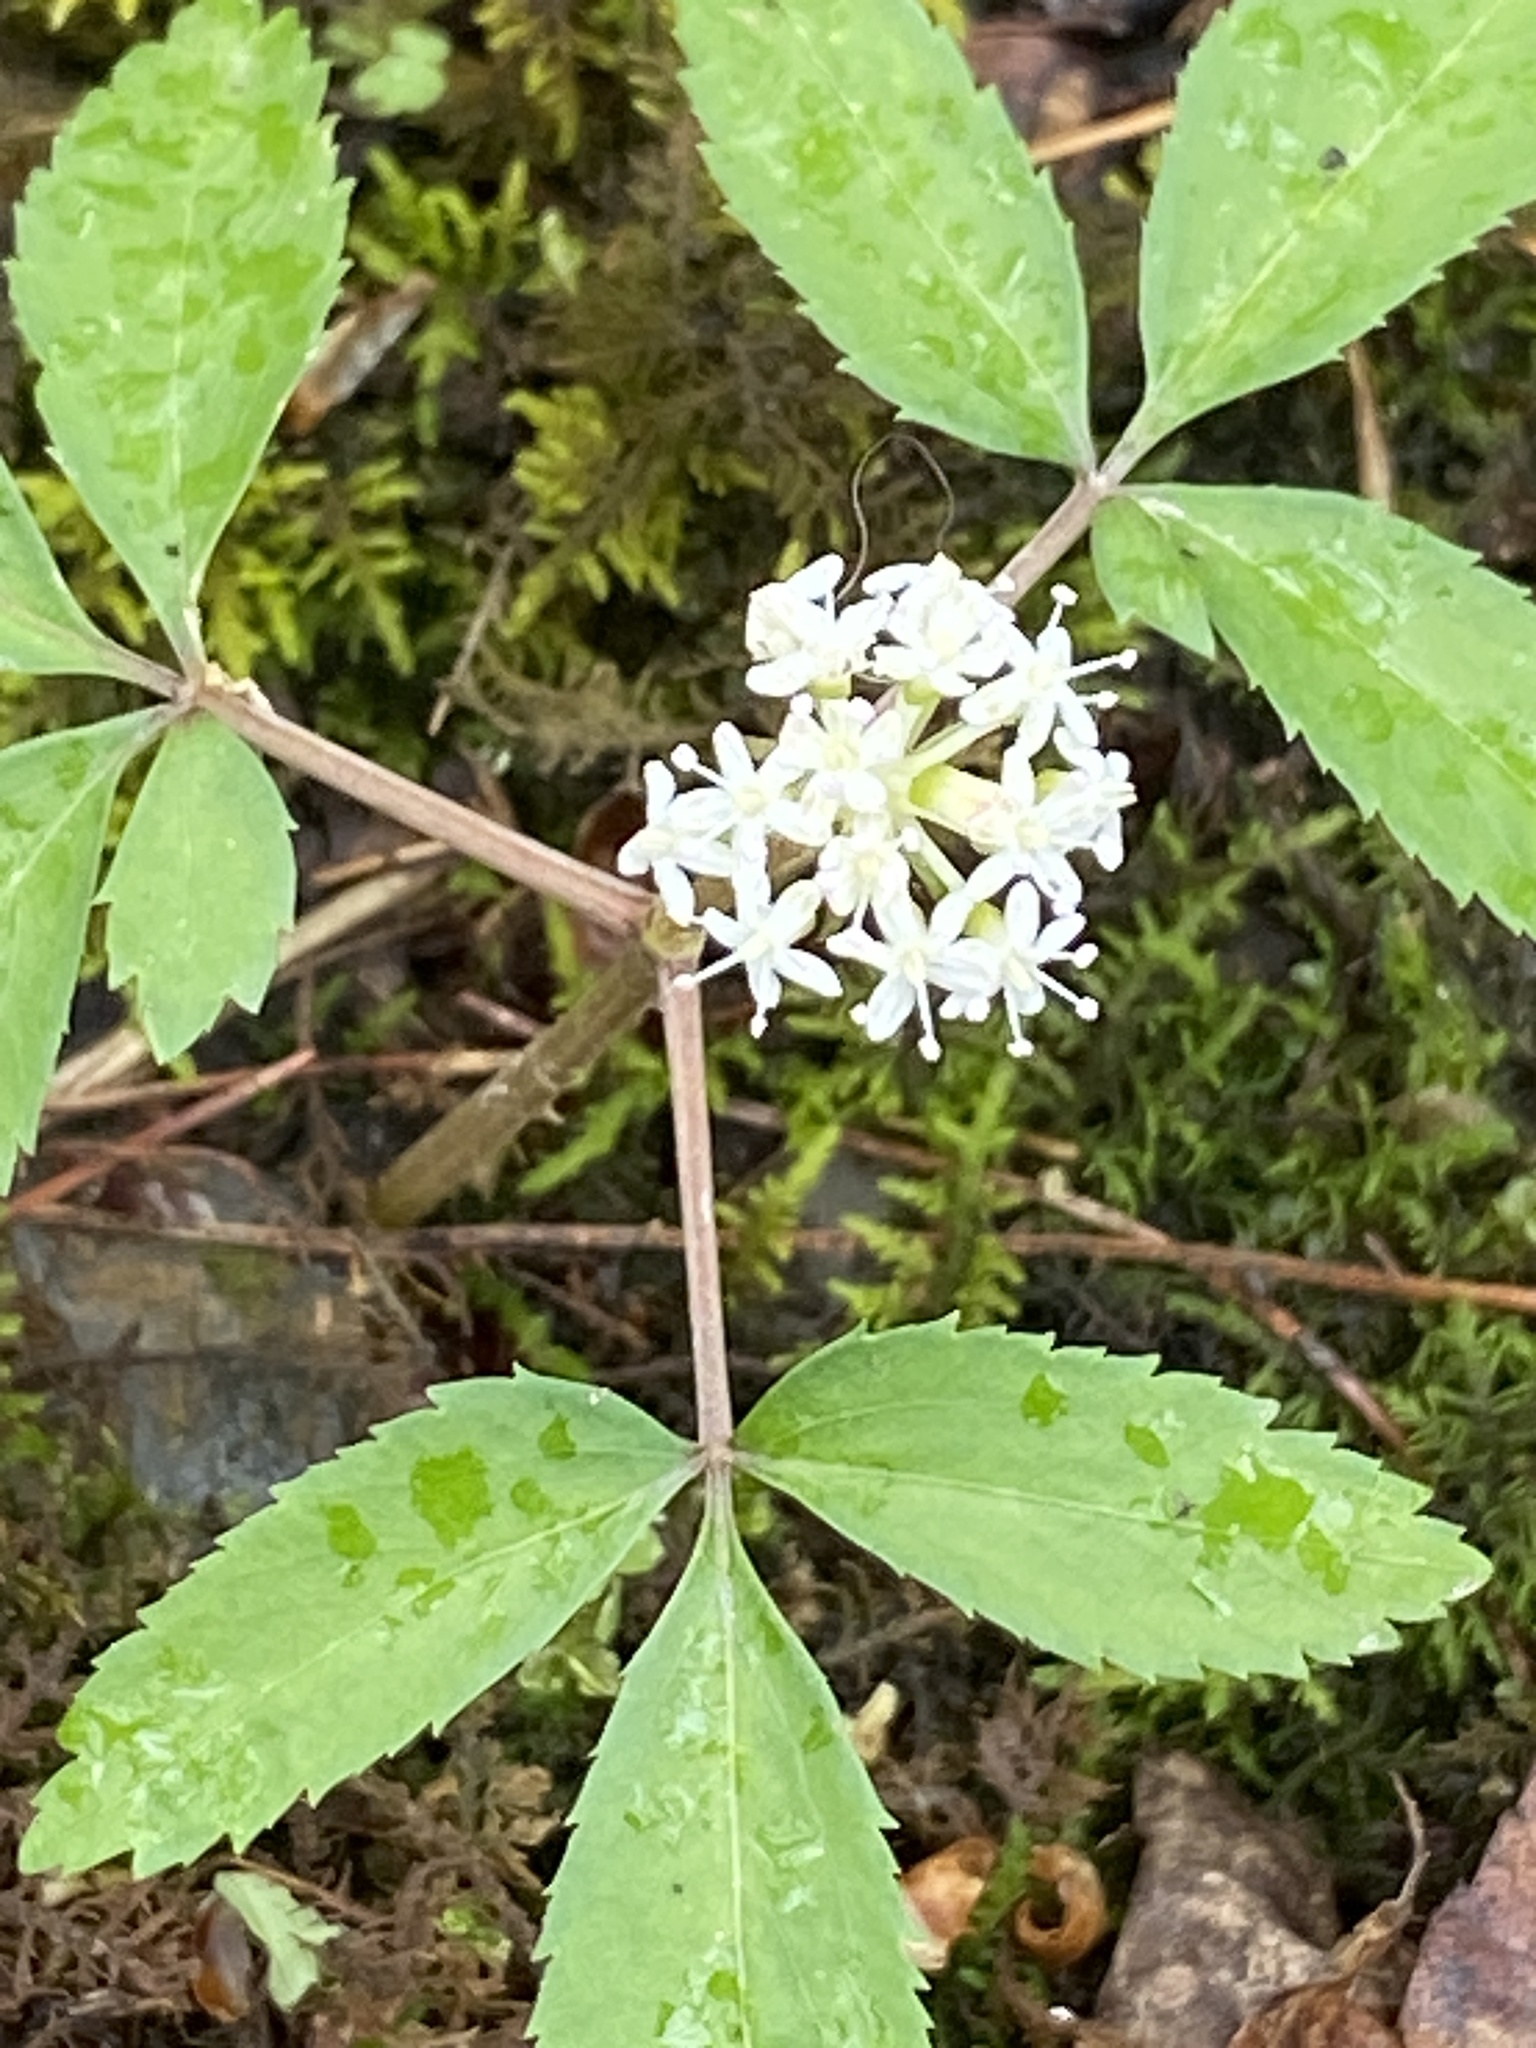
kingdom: Plantae
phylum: Tracheophyta
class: Magnoliopsida
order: Apiales
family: Araliaceae
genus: Panax
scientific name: Panax trifolius
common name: Dwarf ginseng
